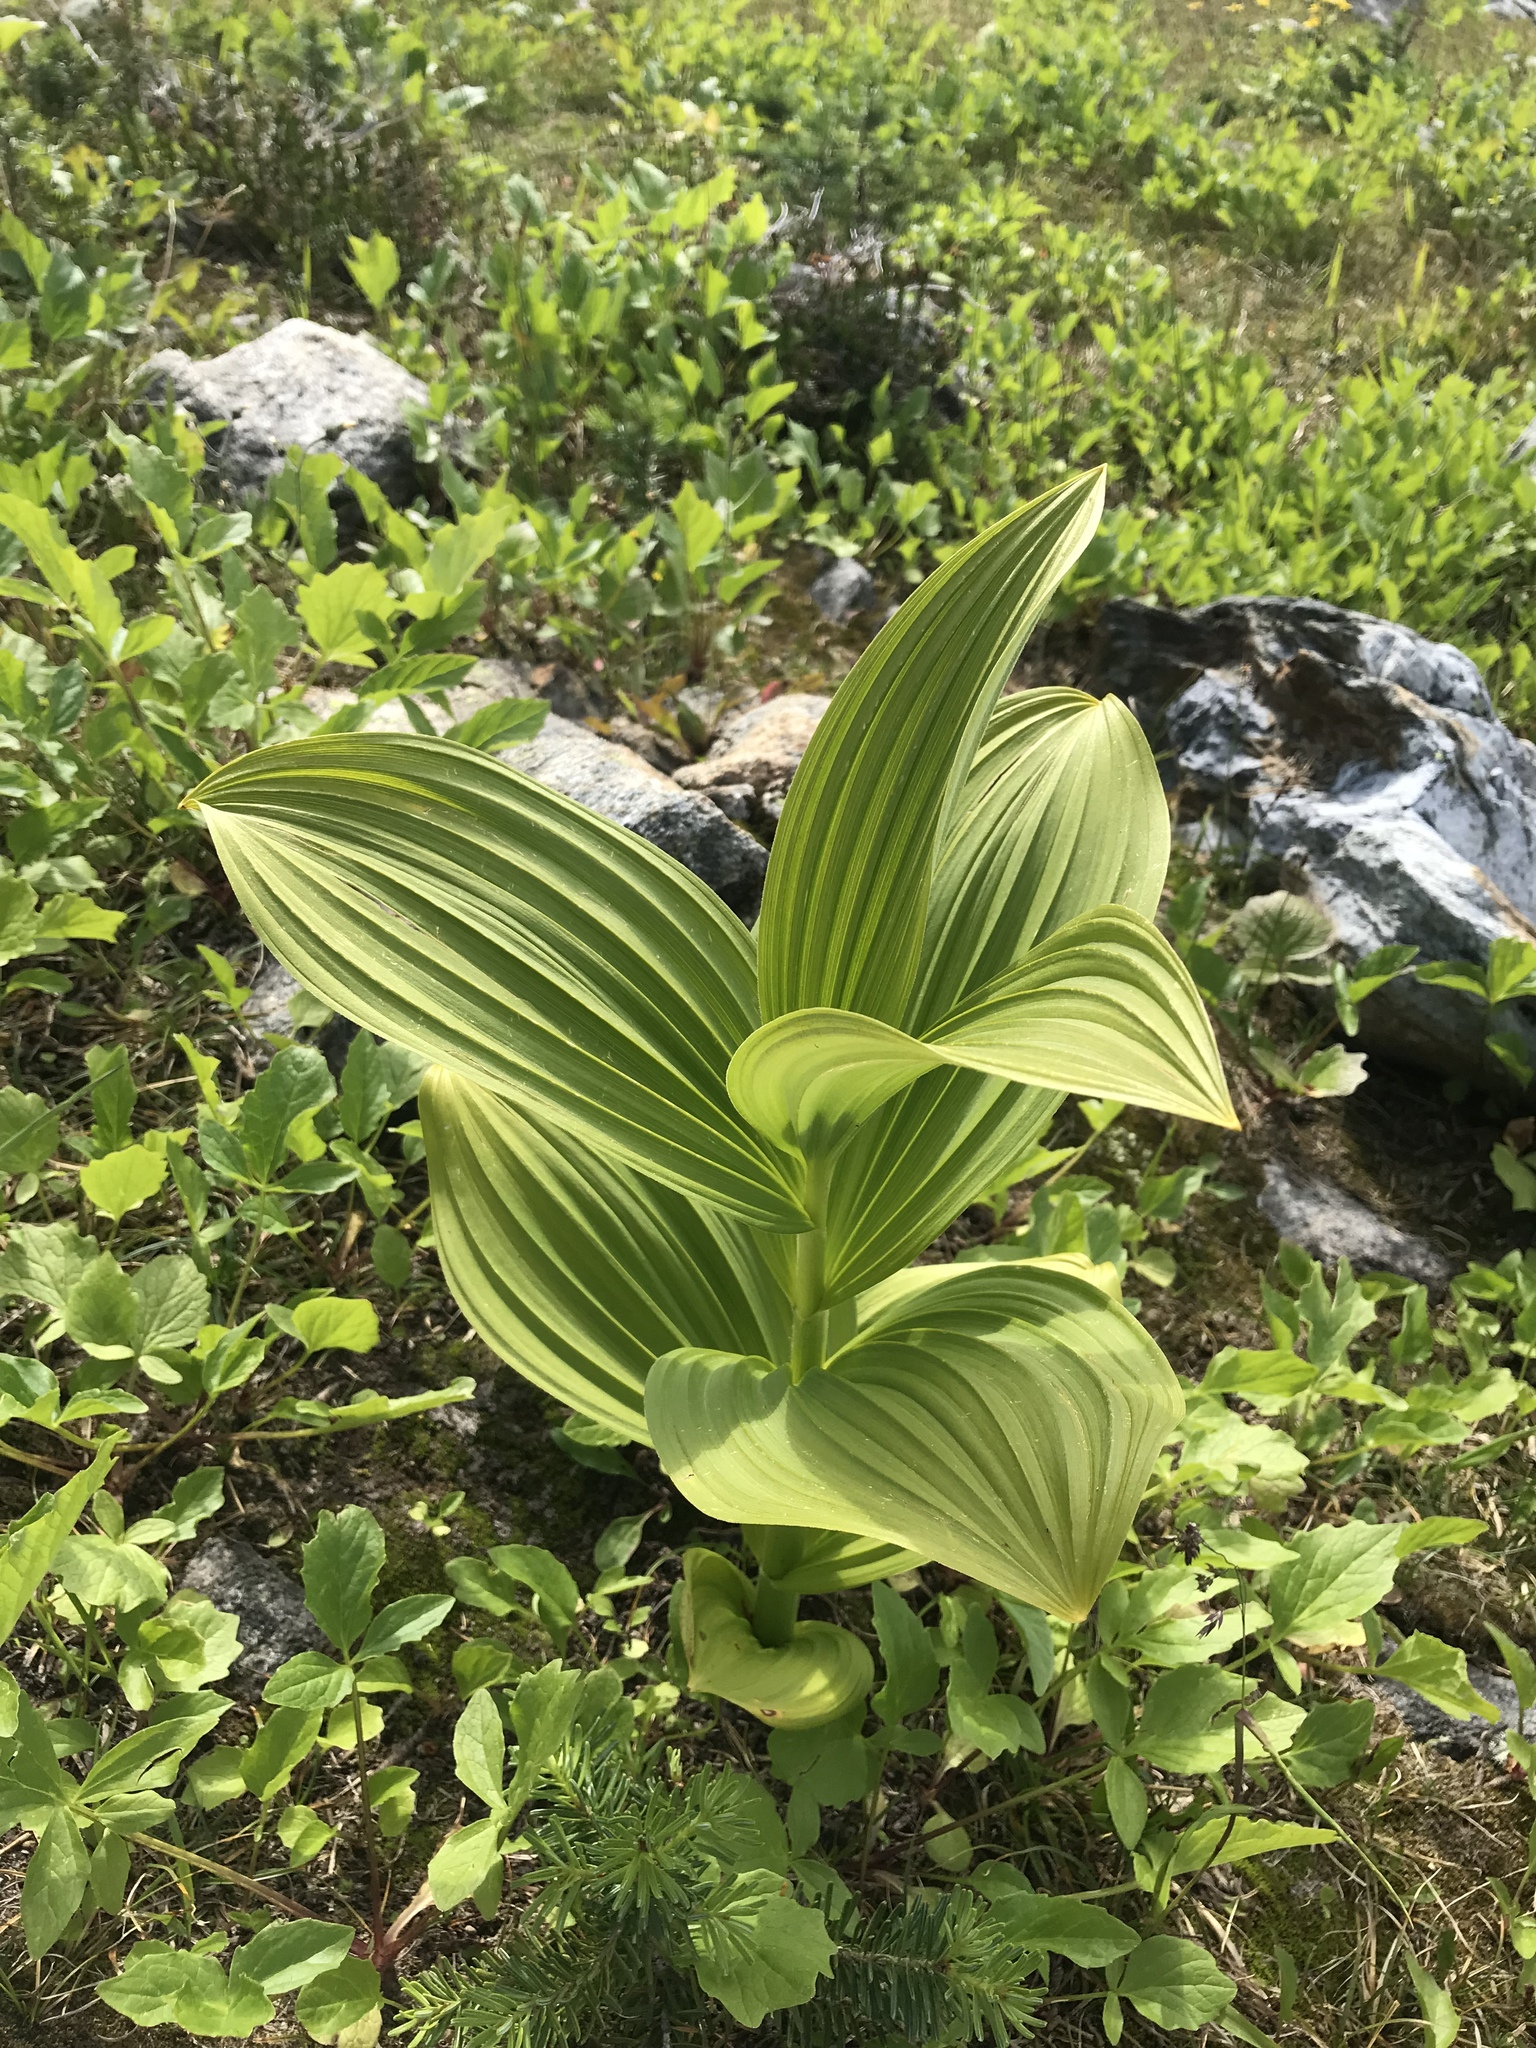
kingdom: Plantae
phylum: Tracheophyta
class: Liliopsida
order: Liliales
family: Melanthiaceae
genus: Veratrum
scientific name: Veratrum viride
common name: American false hellebore
